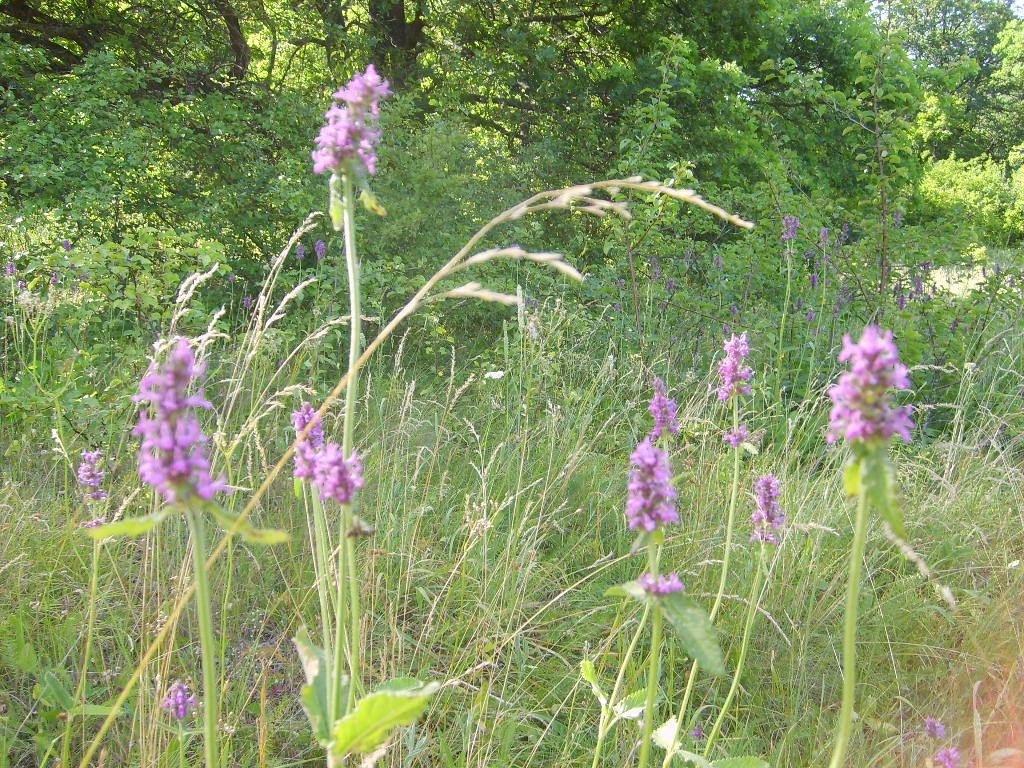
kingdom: Plantae
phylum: Tracheophyta
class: Magnoliopsida
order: Lamiales
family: Lamiaceae
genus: Betonica
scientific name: Betonica officinalis
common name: Bishop's-wort
